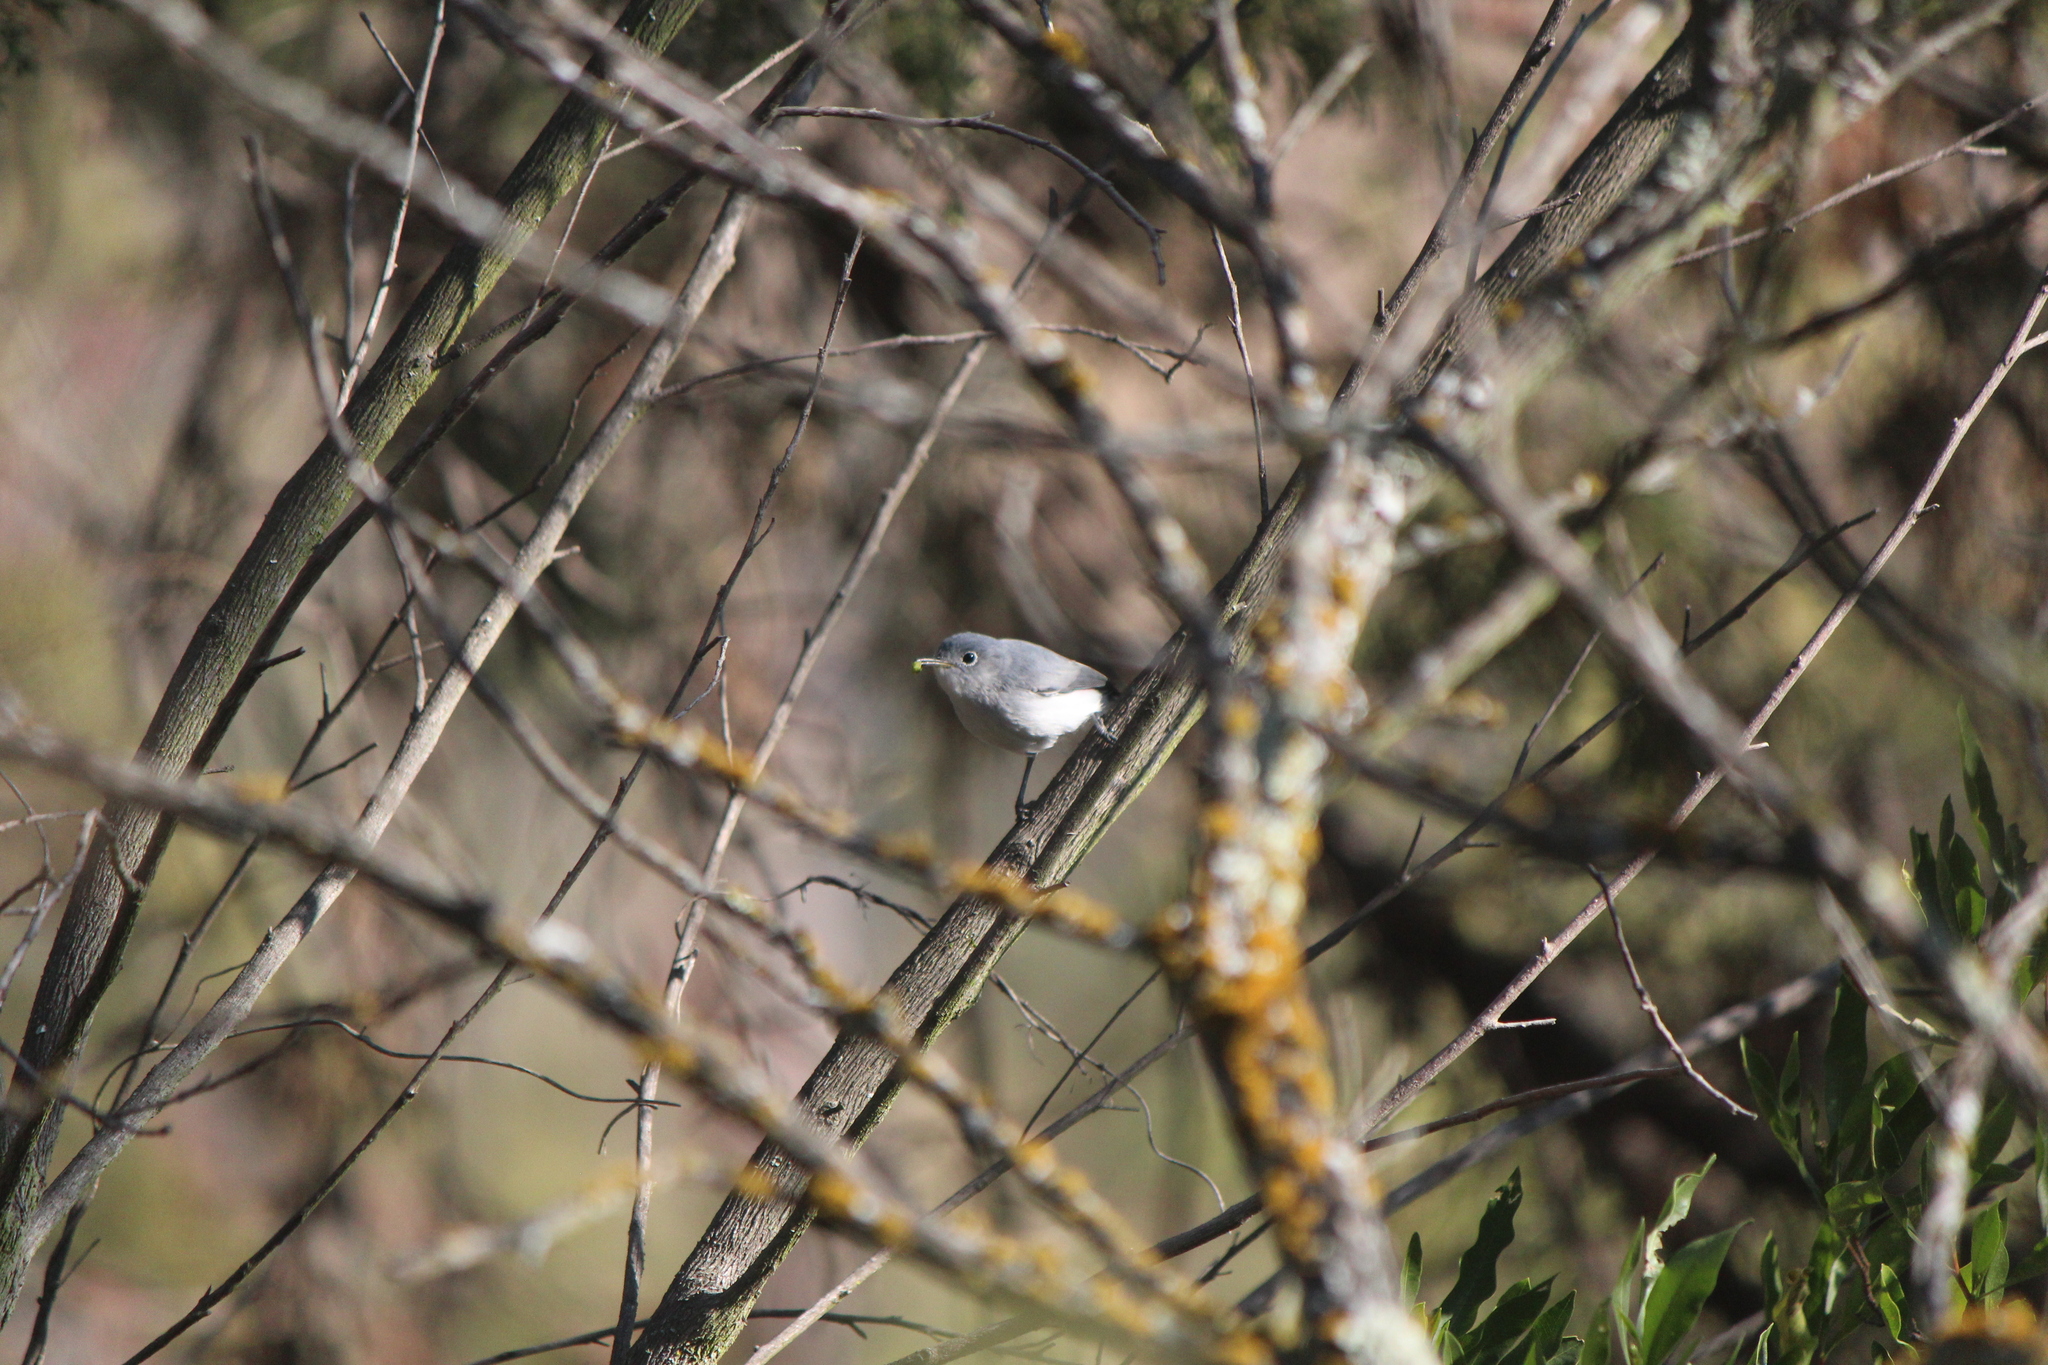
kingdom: Animalia
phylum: Chordata
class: Aves
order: Passeriformes
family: Polioptilidae
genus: Polioptila
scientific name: Polioptila caerulea
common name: Blue-gray gnatcatcher
